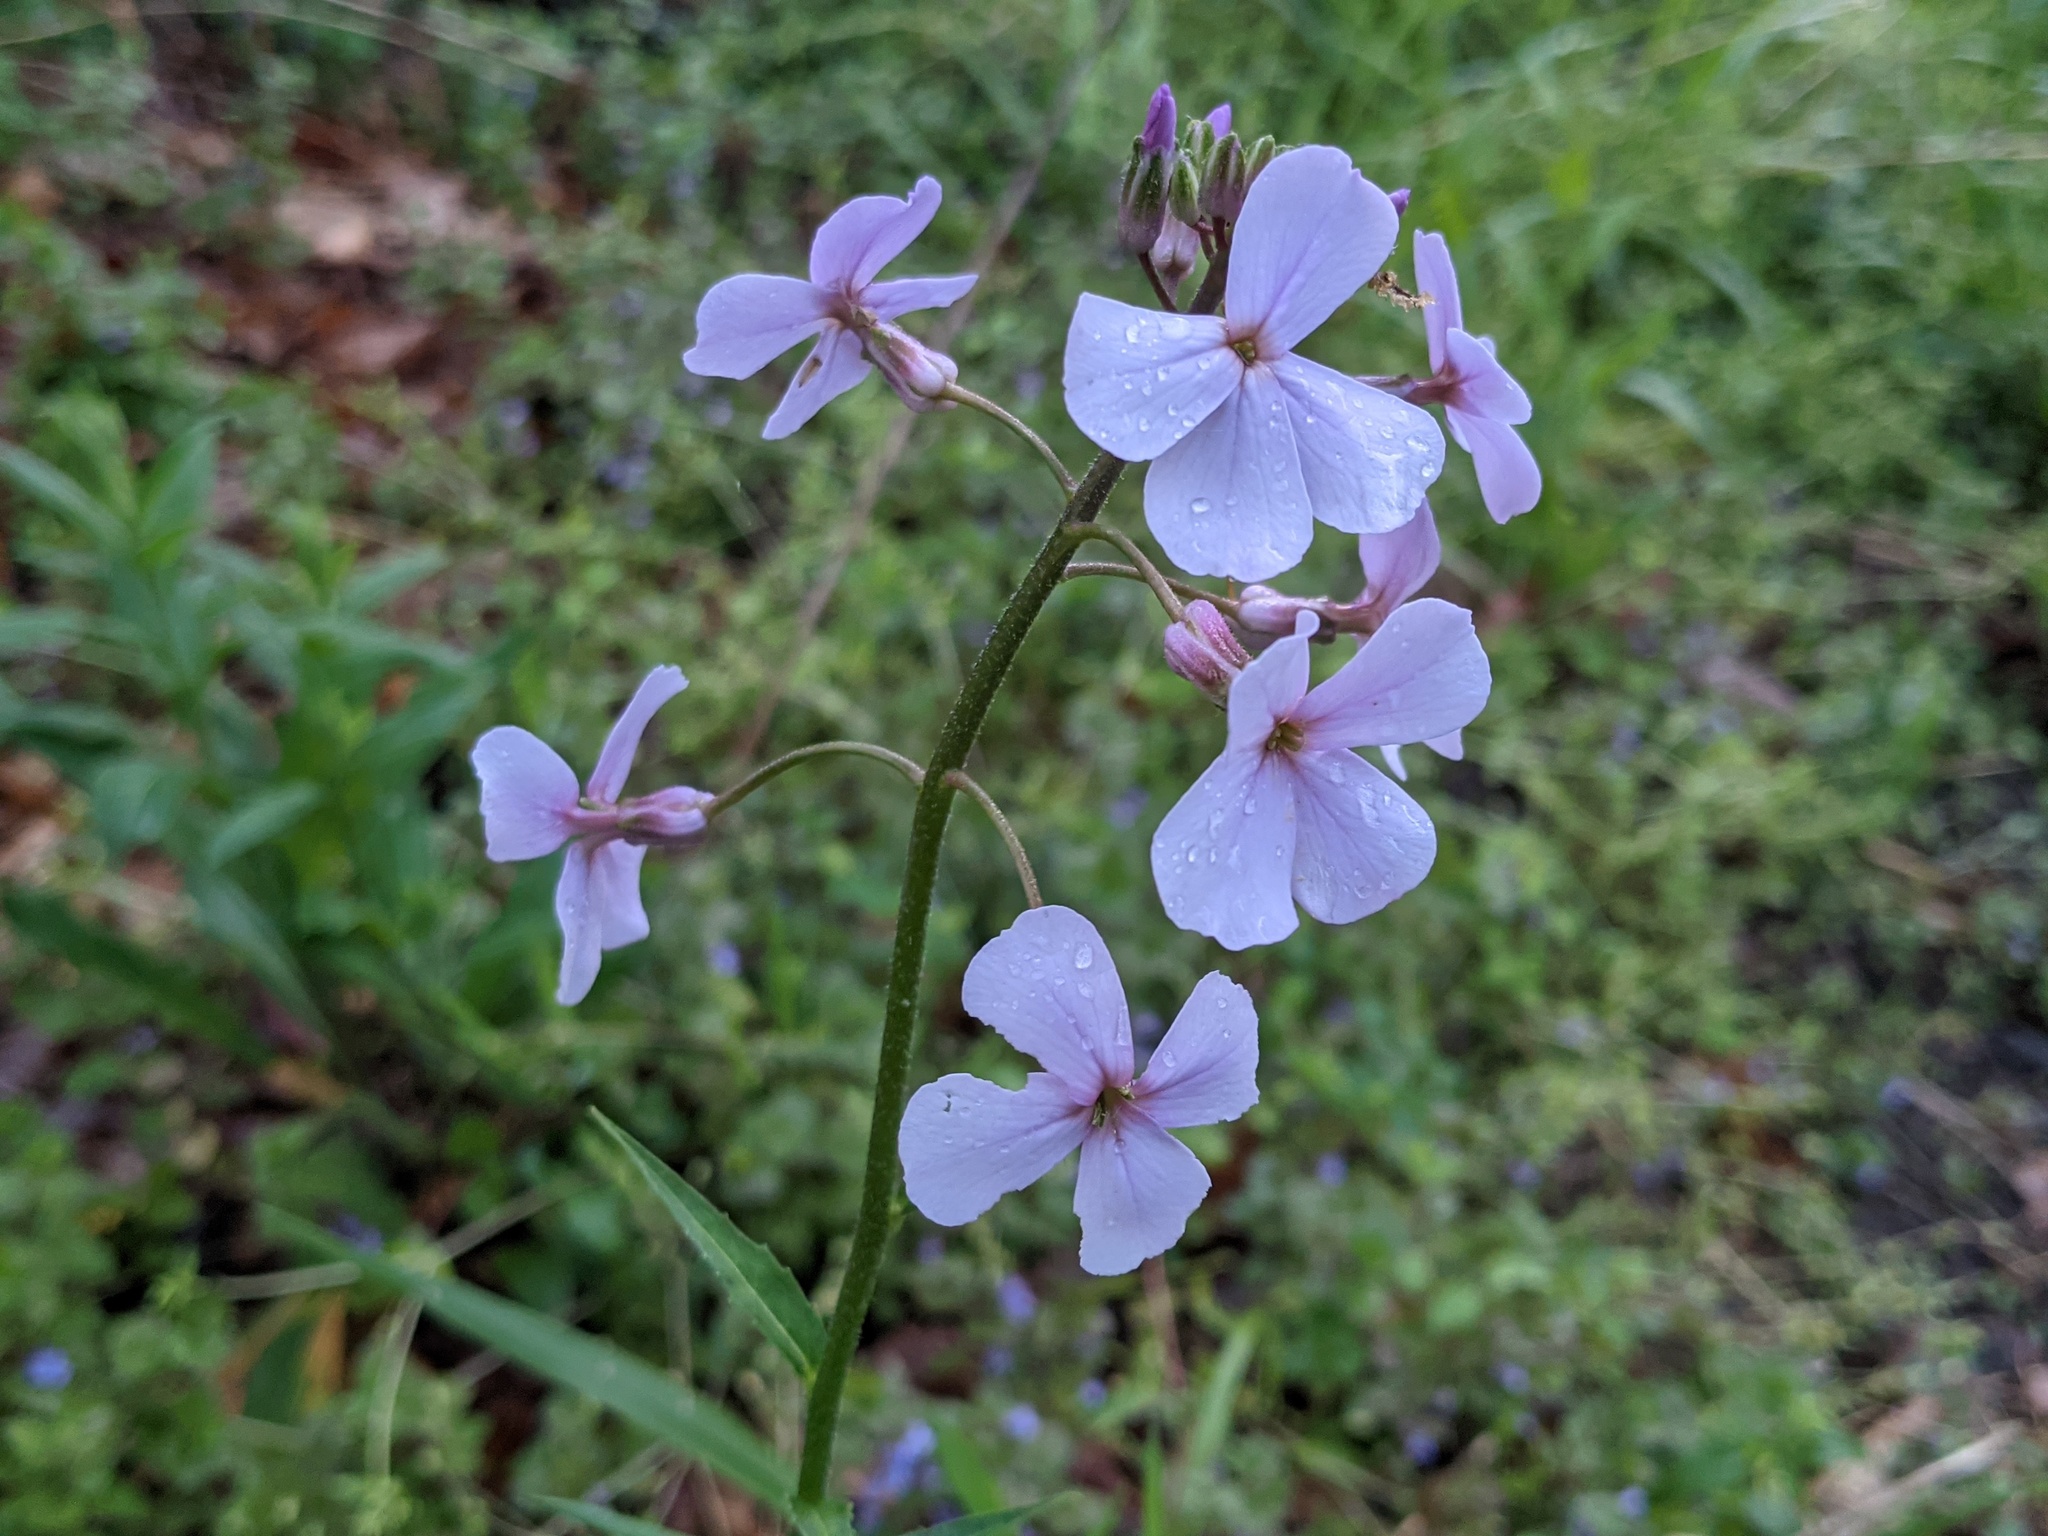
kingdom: Plantae
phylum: Tracheophyta
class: Magnoliopsida
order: Brassicales
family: Brassicaceae
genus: Hesperis
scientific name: Hesperis matronalis
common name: Dame's-violet
